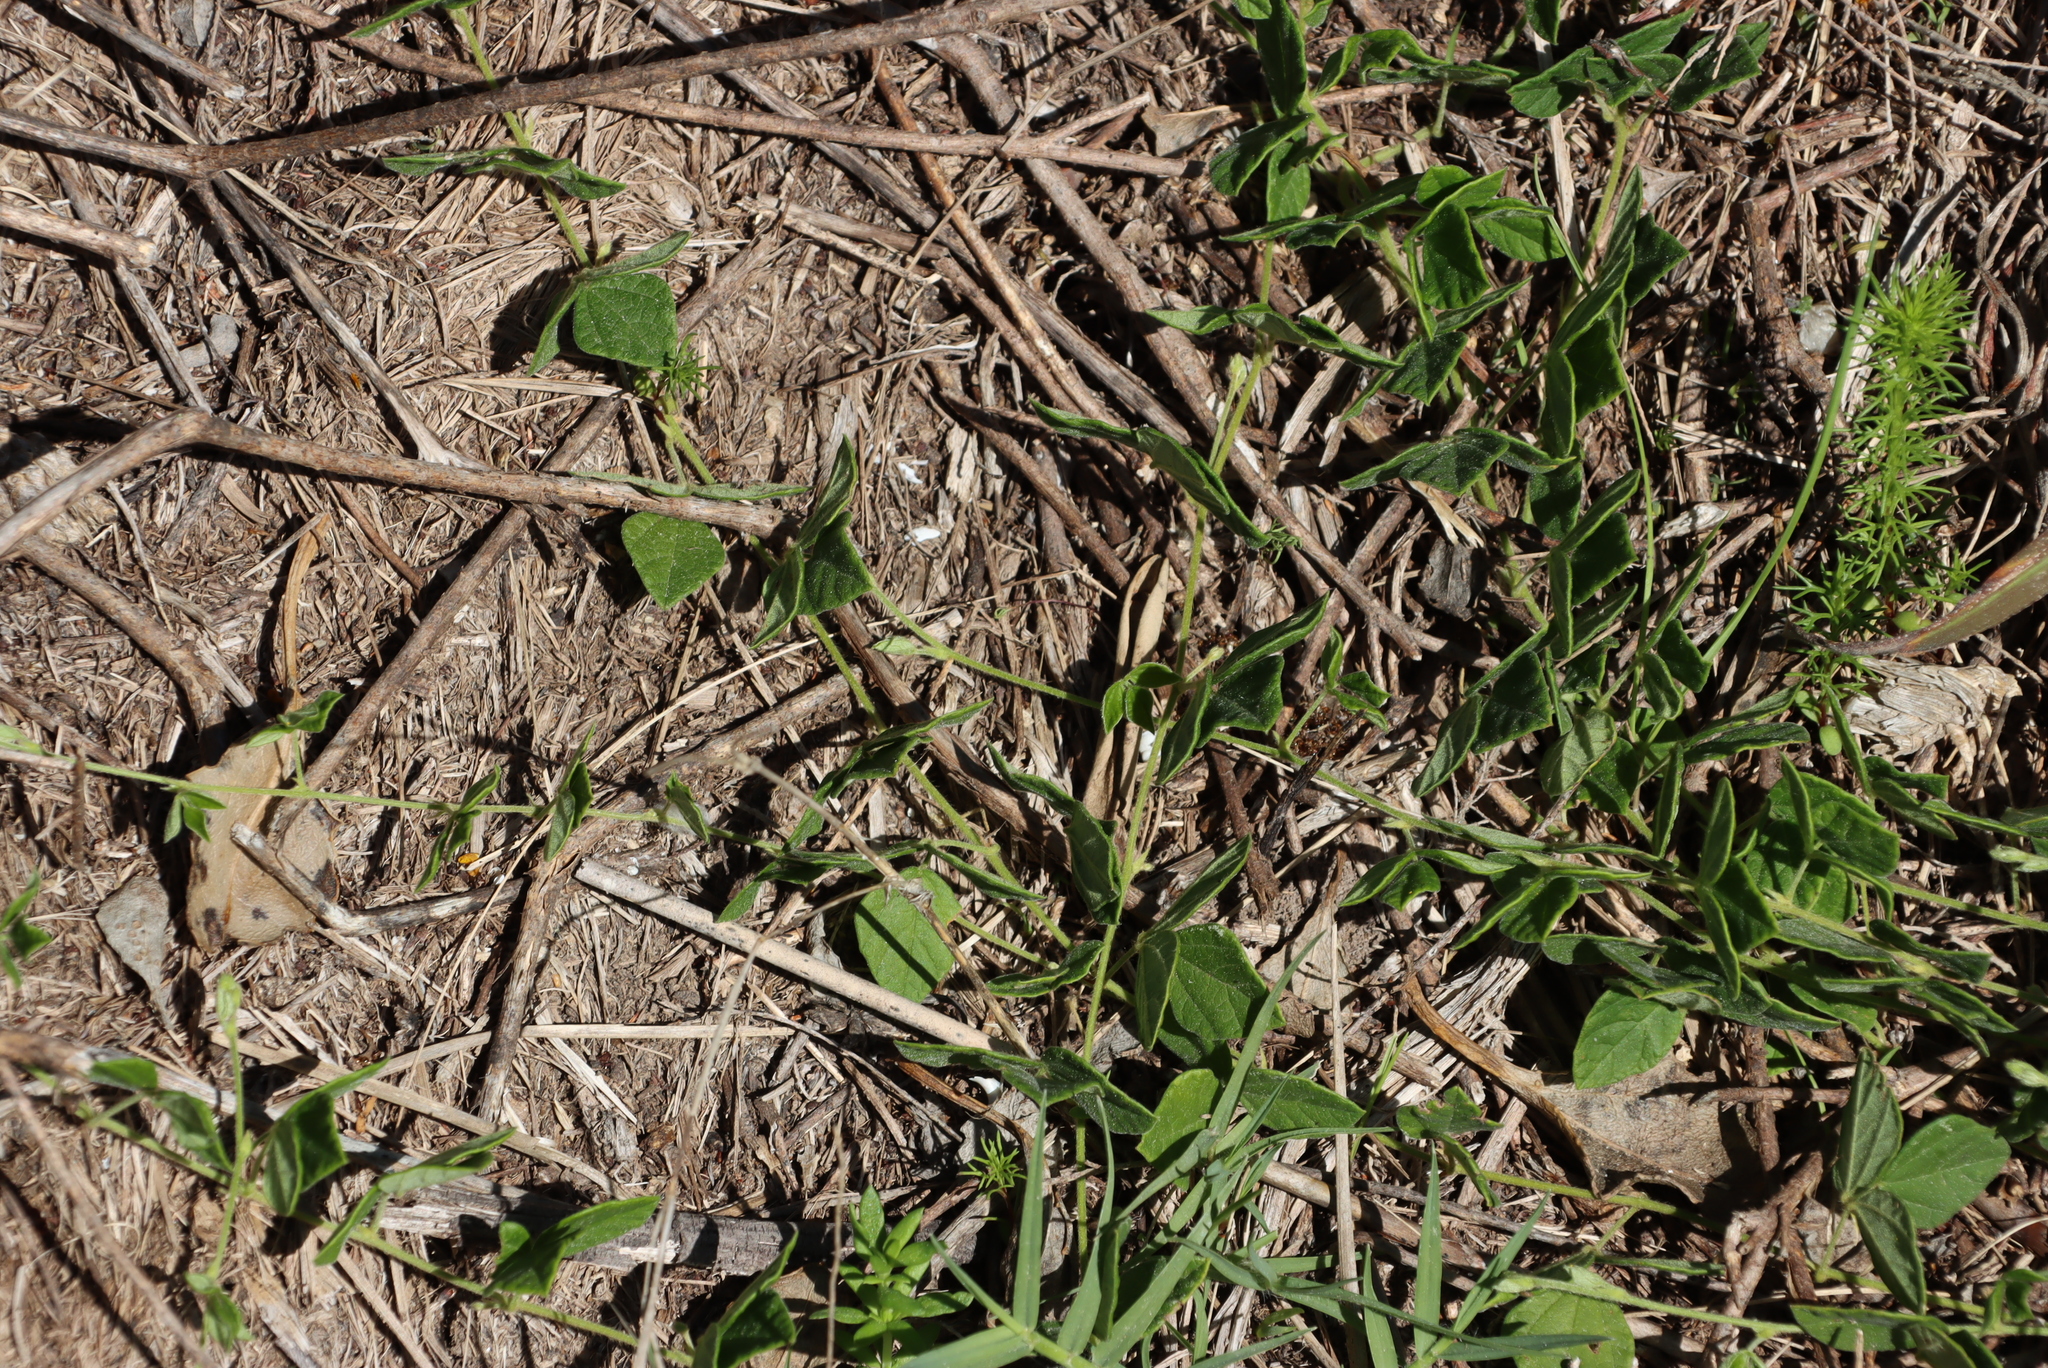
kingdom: Plantae
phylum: Tracheophyta
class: Magnoliopsida
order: Fabales
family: Fabaceae
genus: Rhynchosia
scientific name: Rhynchosia caribaea
